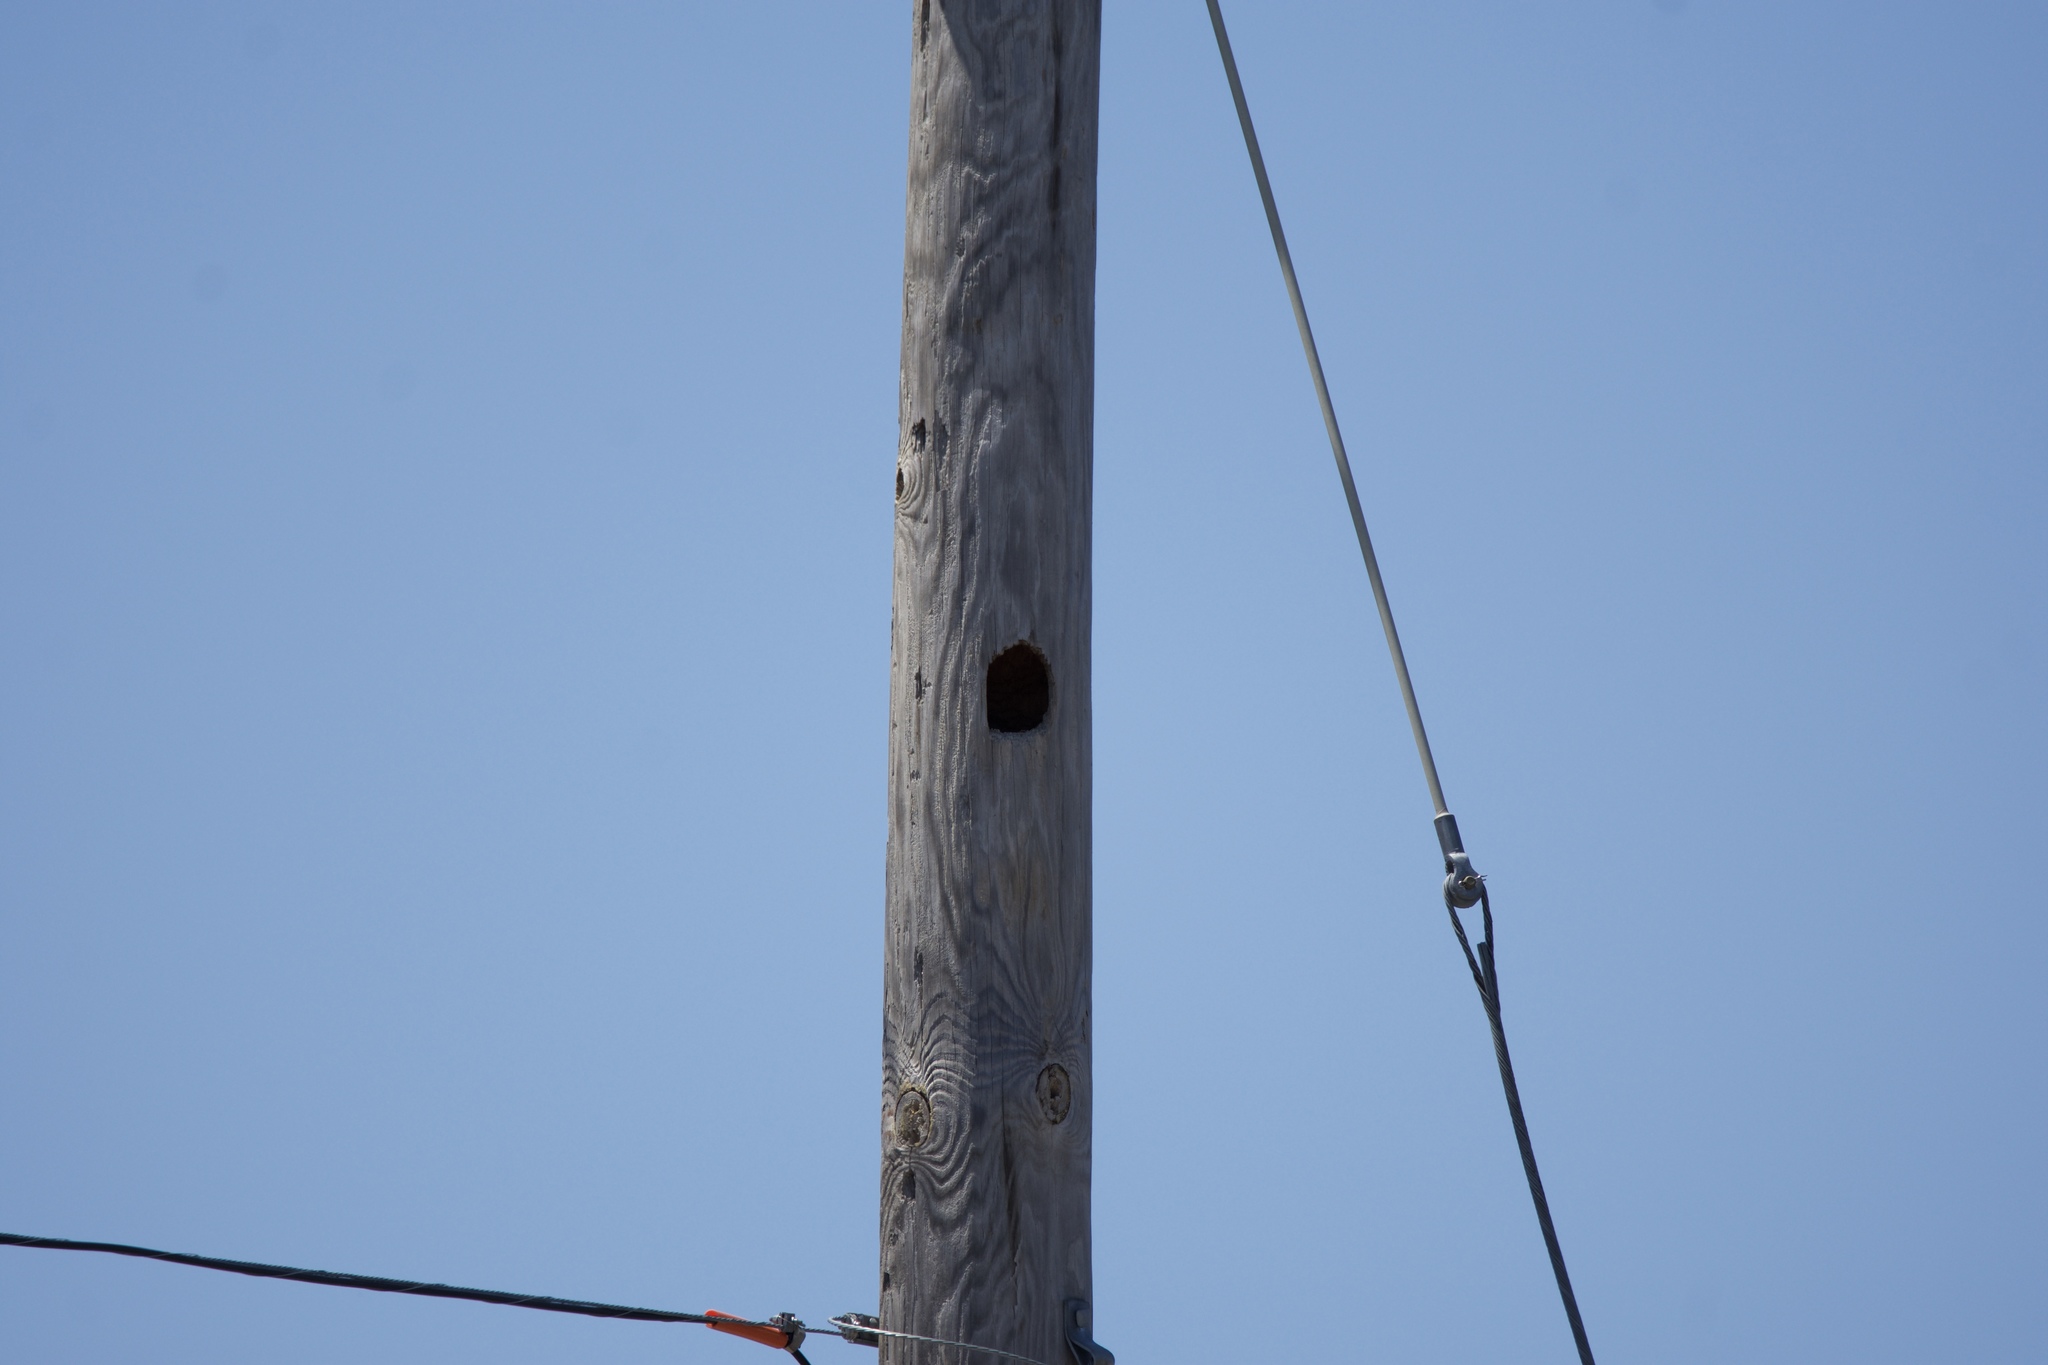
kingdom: Animalia
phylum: Chordata
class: Aves
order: Piciformes
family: Picidae
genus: Dryocopus
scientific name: Dryocopus pileatus
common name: Pileated woodpecker
